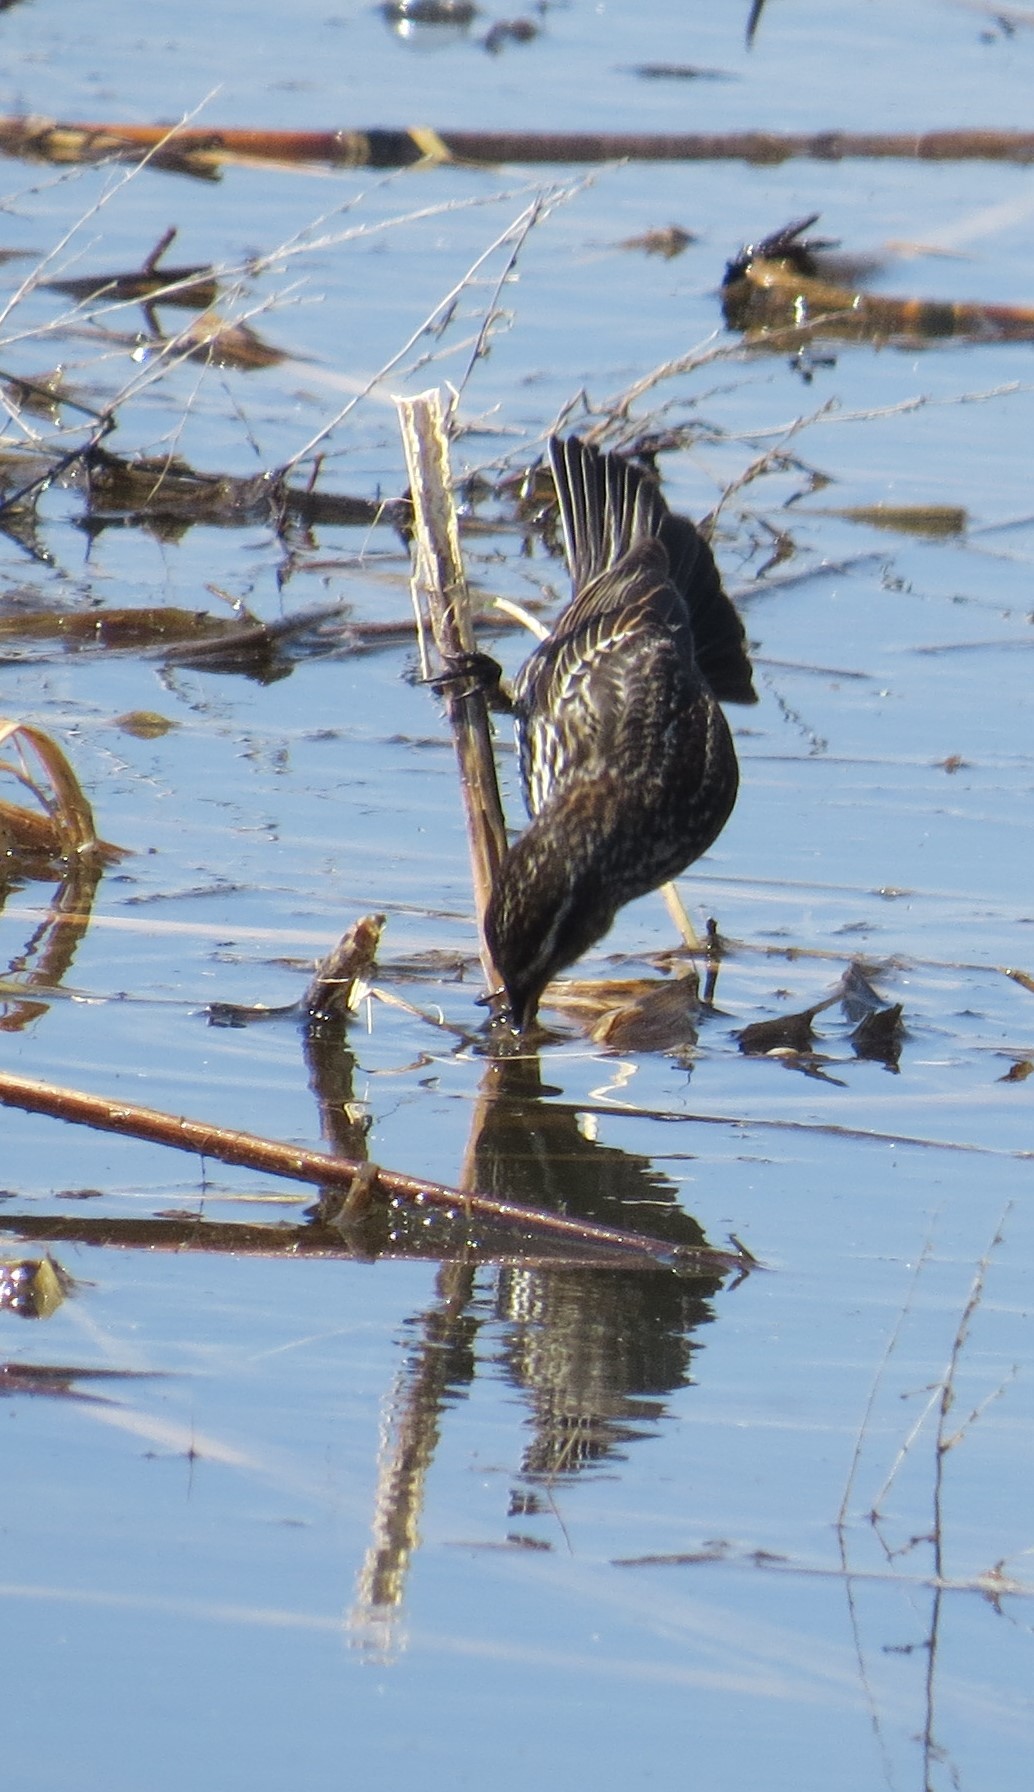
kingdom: Animalia
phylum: Chordata
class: Aves
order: Passeriformes
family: Icteridae
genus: Agelaius
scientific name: Agelaius phoeniceus
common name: Red-winged blackbird
